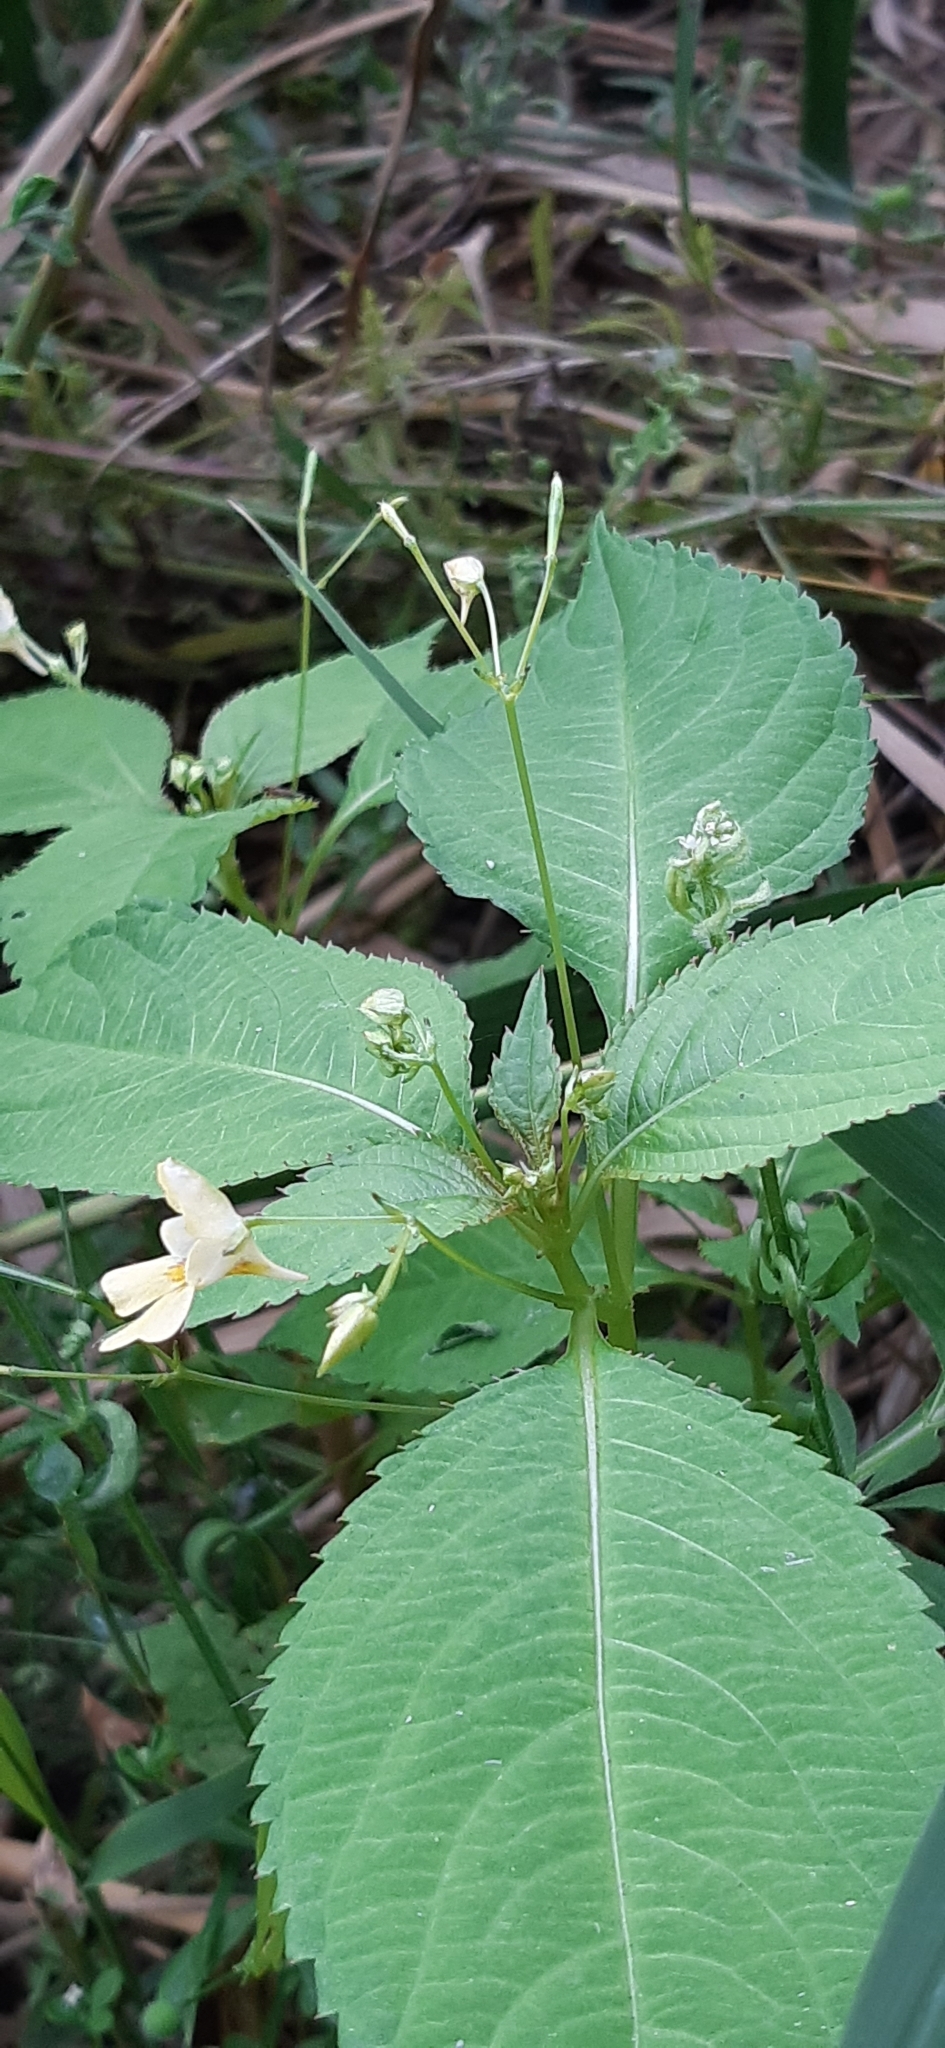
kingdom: Plantae
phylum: Tracheophyta
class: Magnoliopsida
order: Ericales
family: Balsaminaceae
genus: Impatiens
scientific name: Impatiens parviflora
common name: Small balsam
